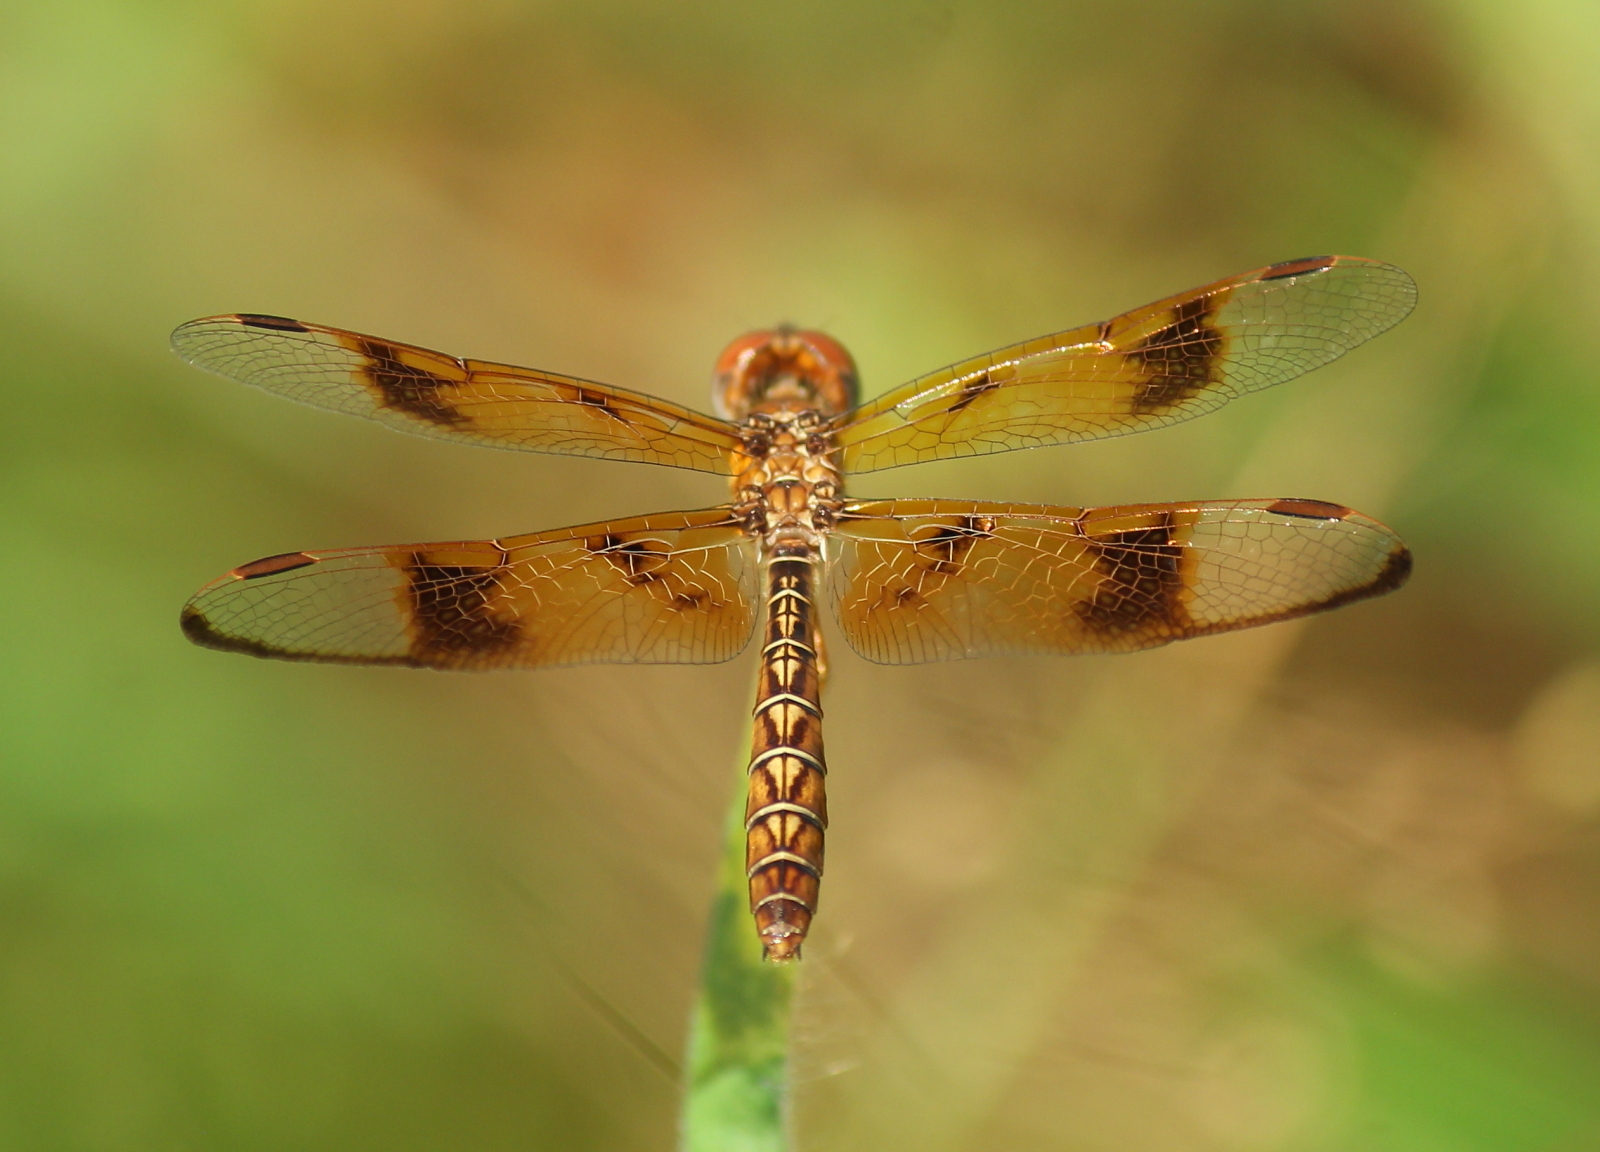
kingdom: Animalia
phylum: Arthropoda
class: Insecta
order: Odonata
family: Libellulidae
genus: Perithemis
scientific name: Perithemis tenera
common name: Eastern amberwing
